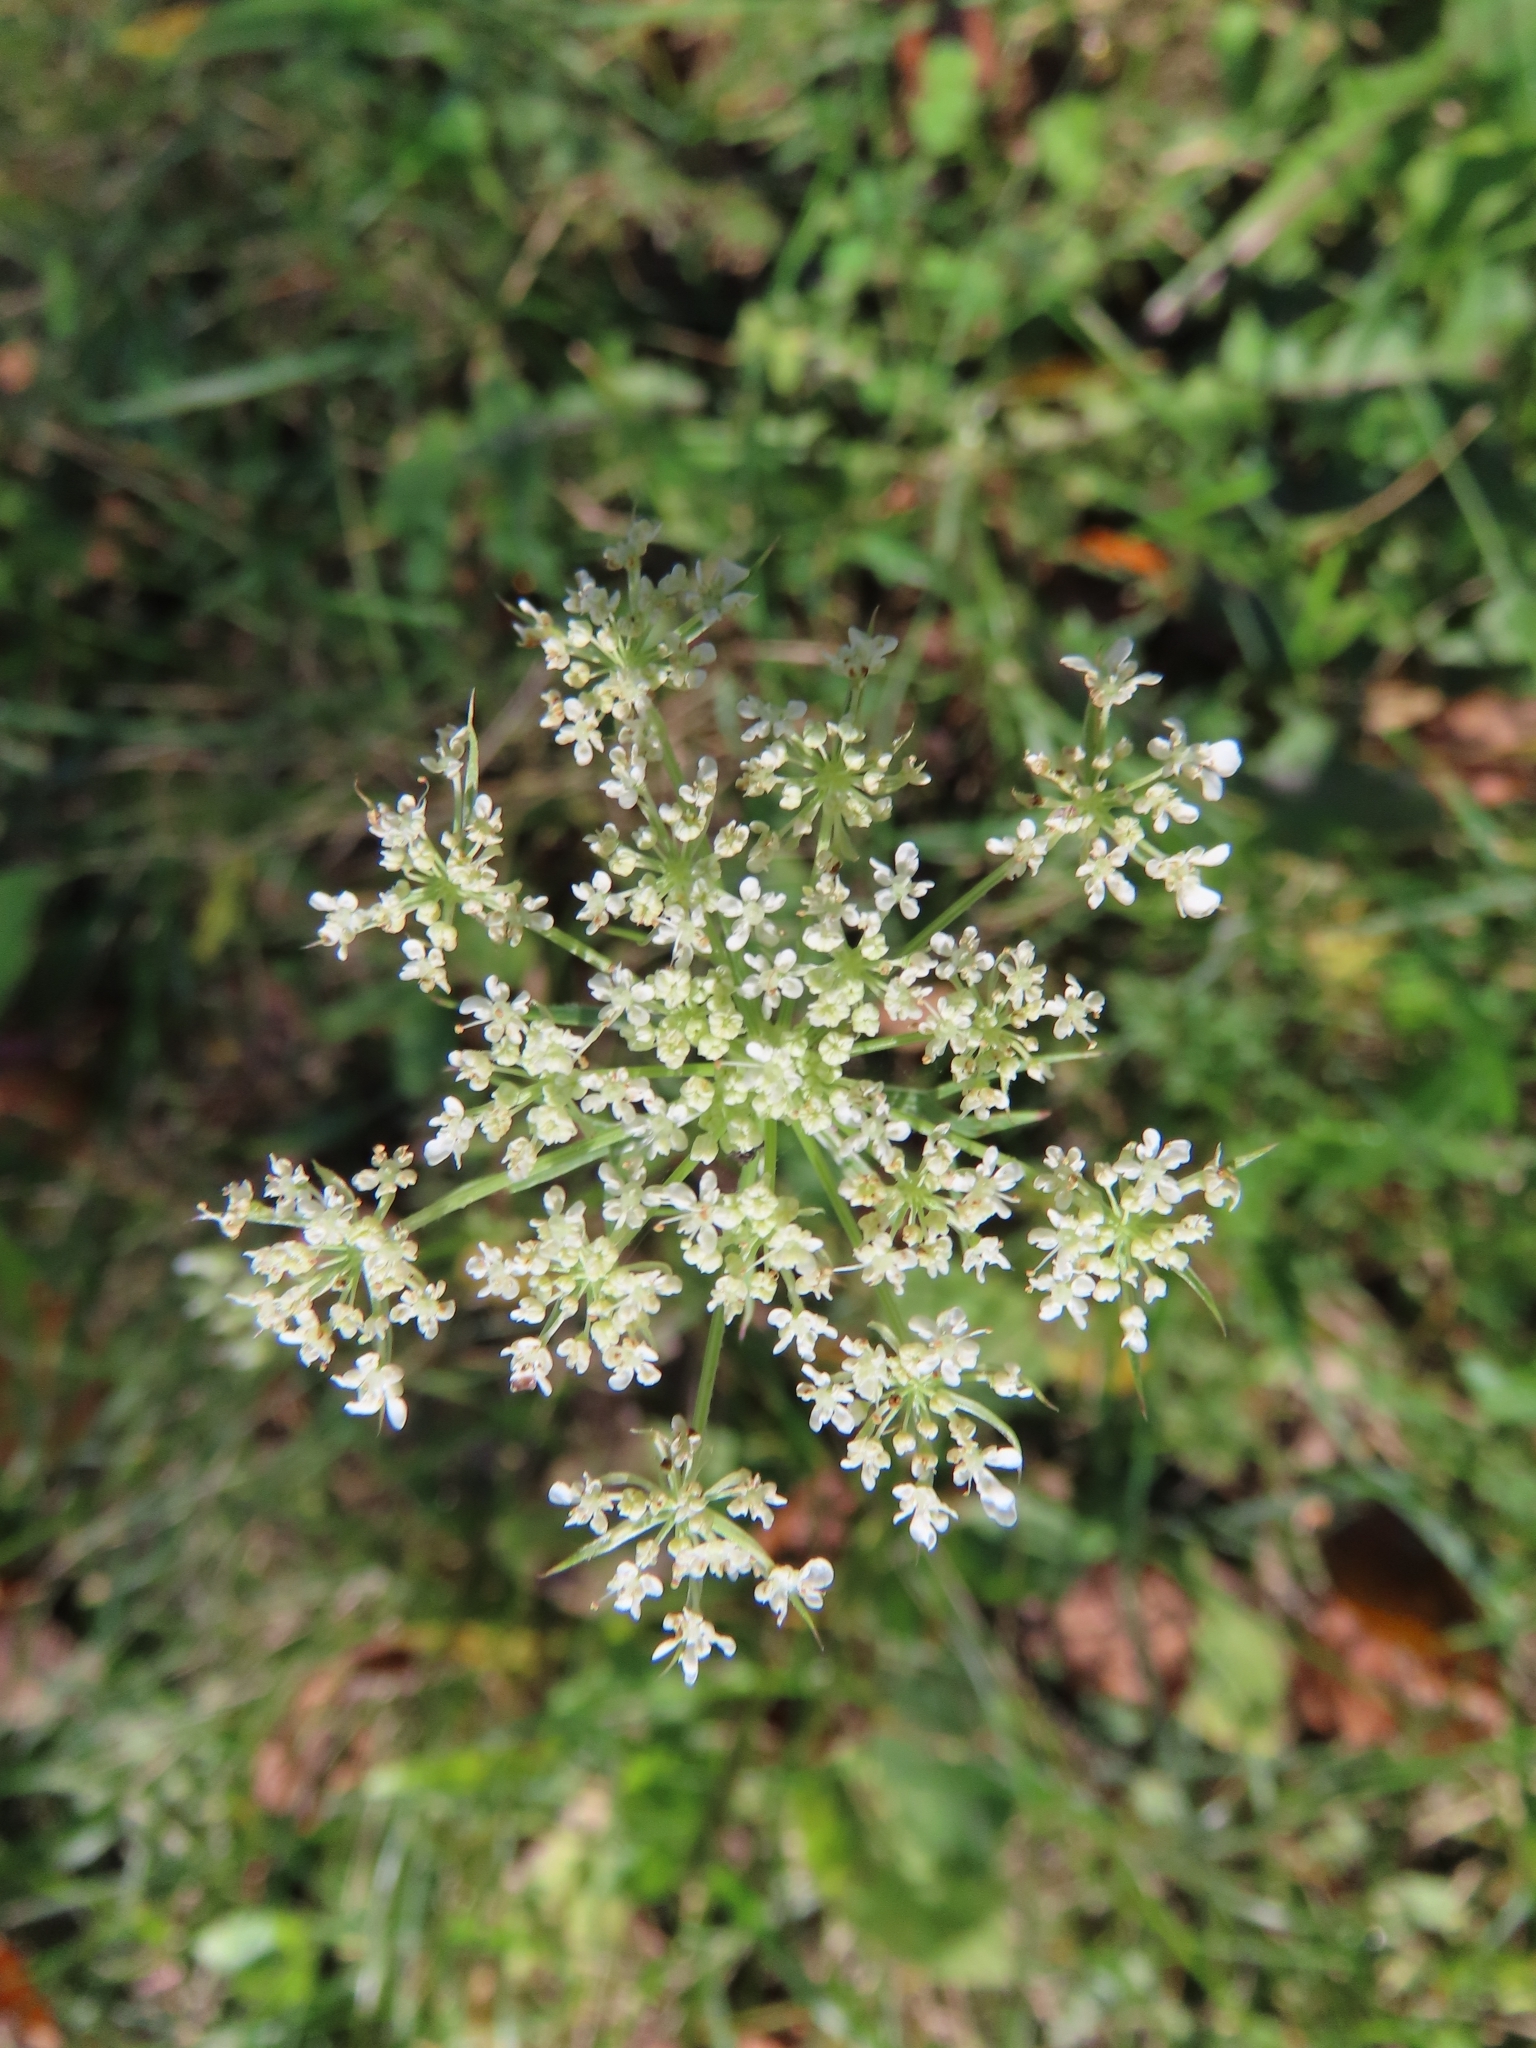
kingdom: Plantae
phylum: Tracheophyta
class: Magnoliopsida
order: Apiales
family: Apiaceae
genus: Daucus
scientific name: Daucus carota
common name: Wild carrot
